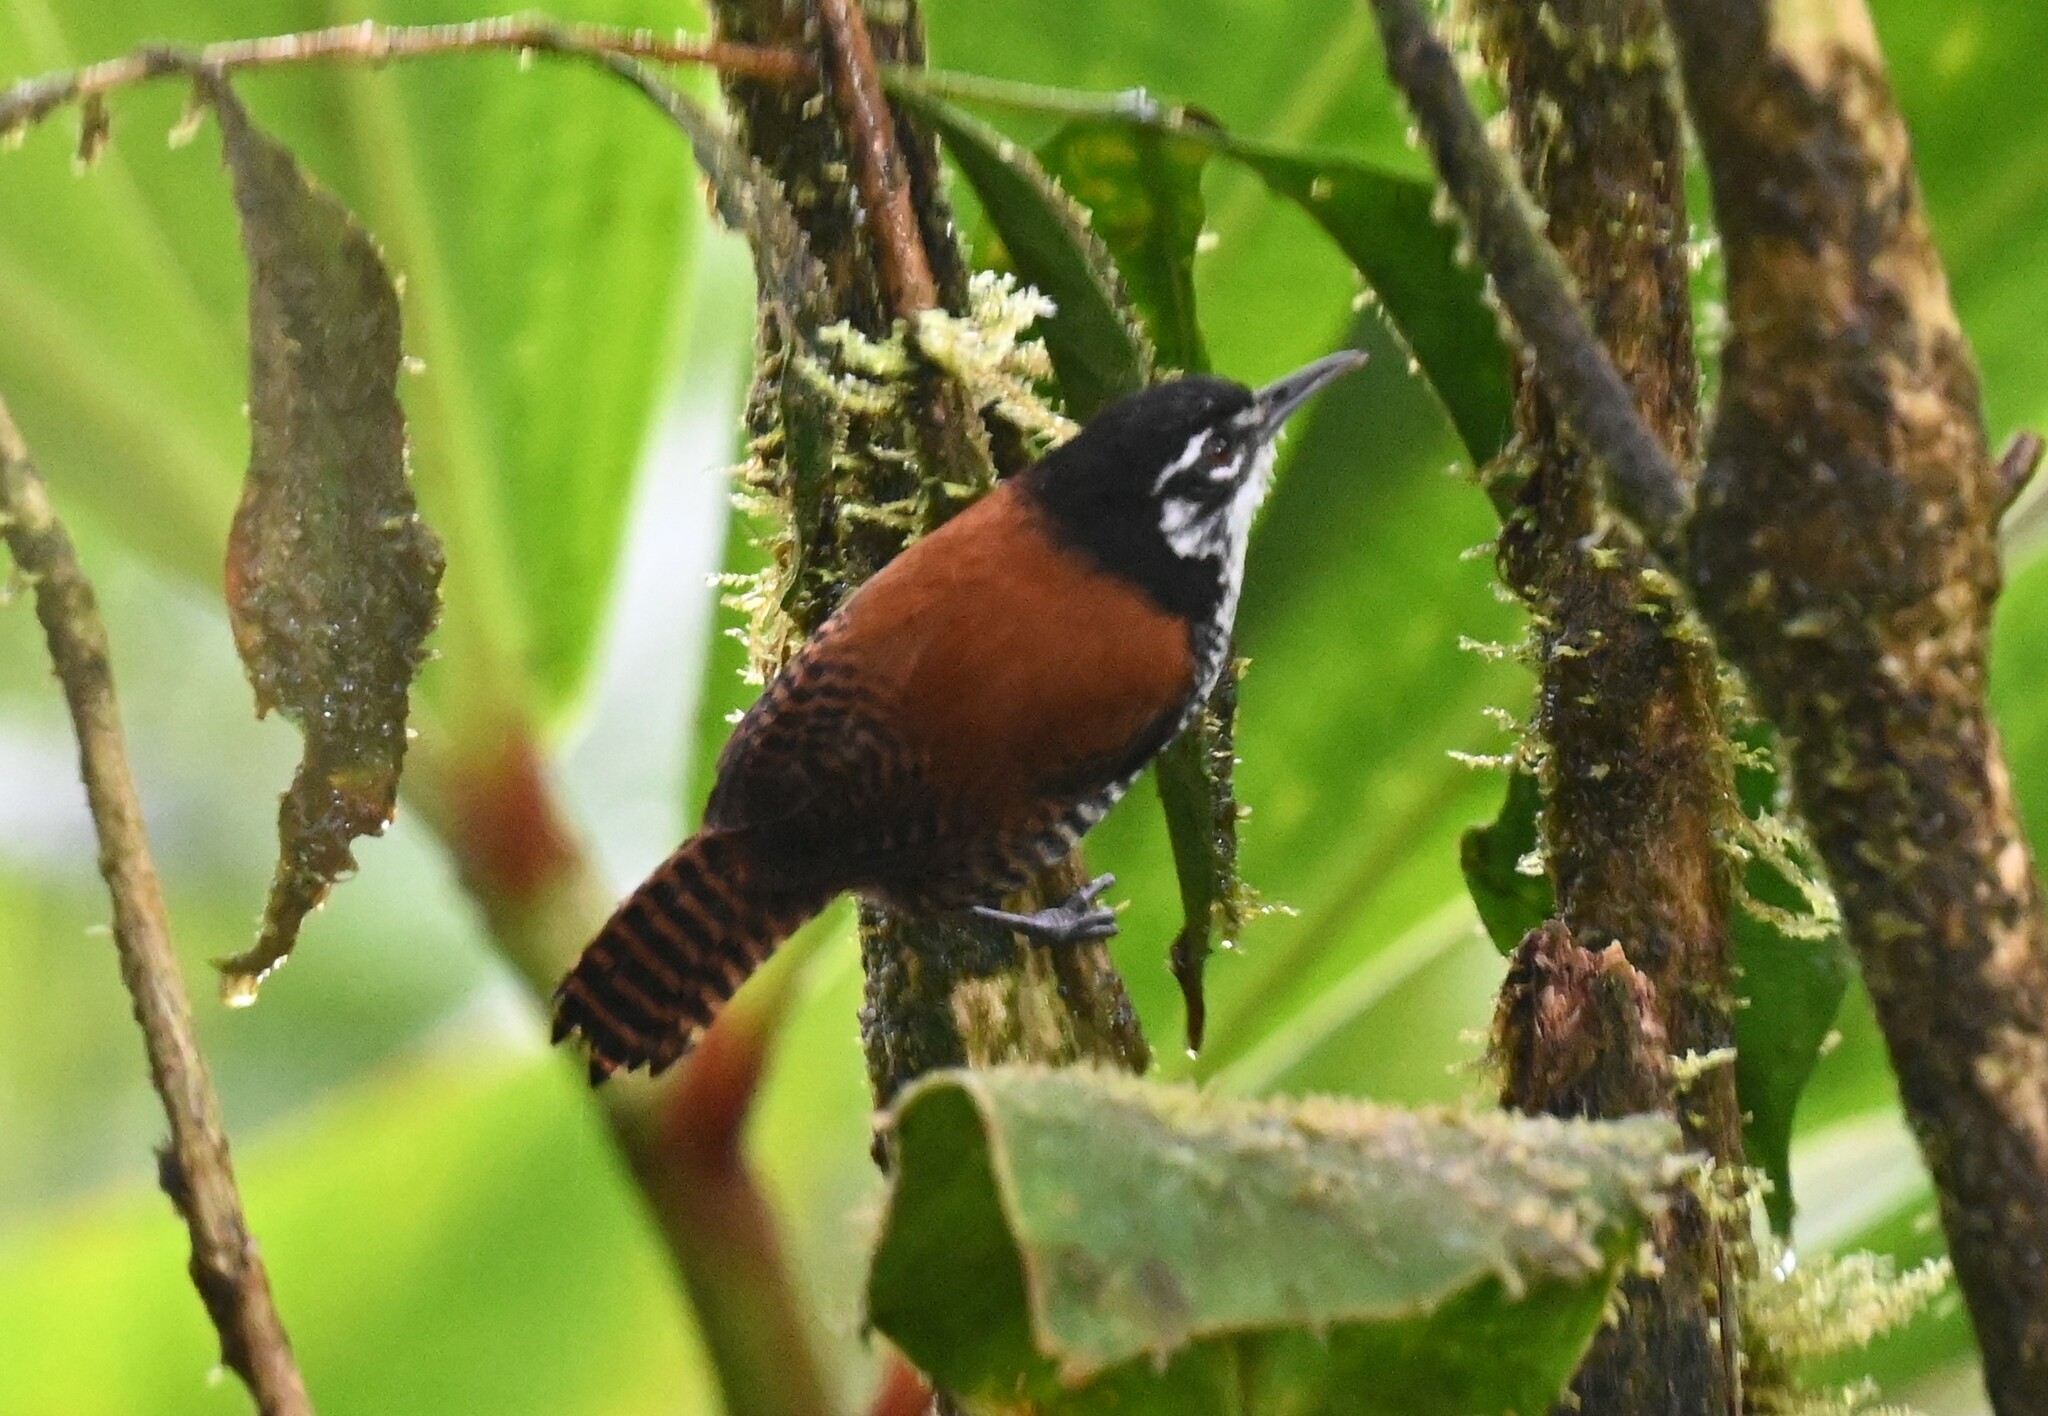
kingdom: Animalia
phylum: Chordata
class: Aves
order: Passeriformes
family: Troglodytidae
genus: Cantorchilus
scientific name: Cantorchilus nigricapillus
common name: Bay wren
